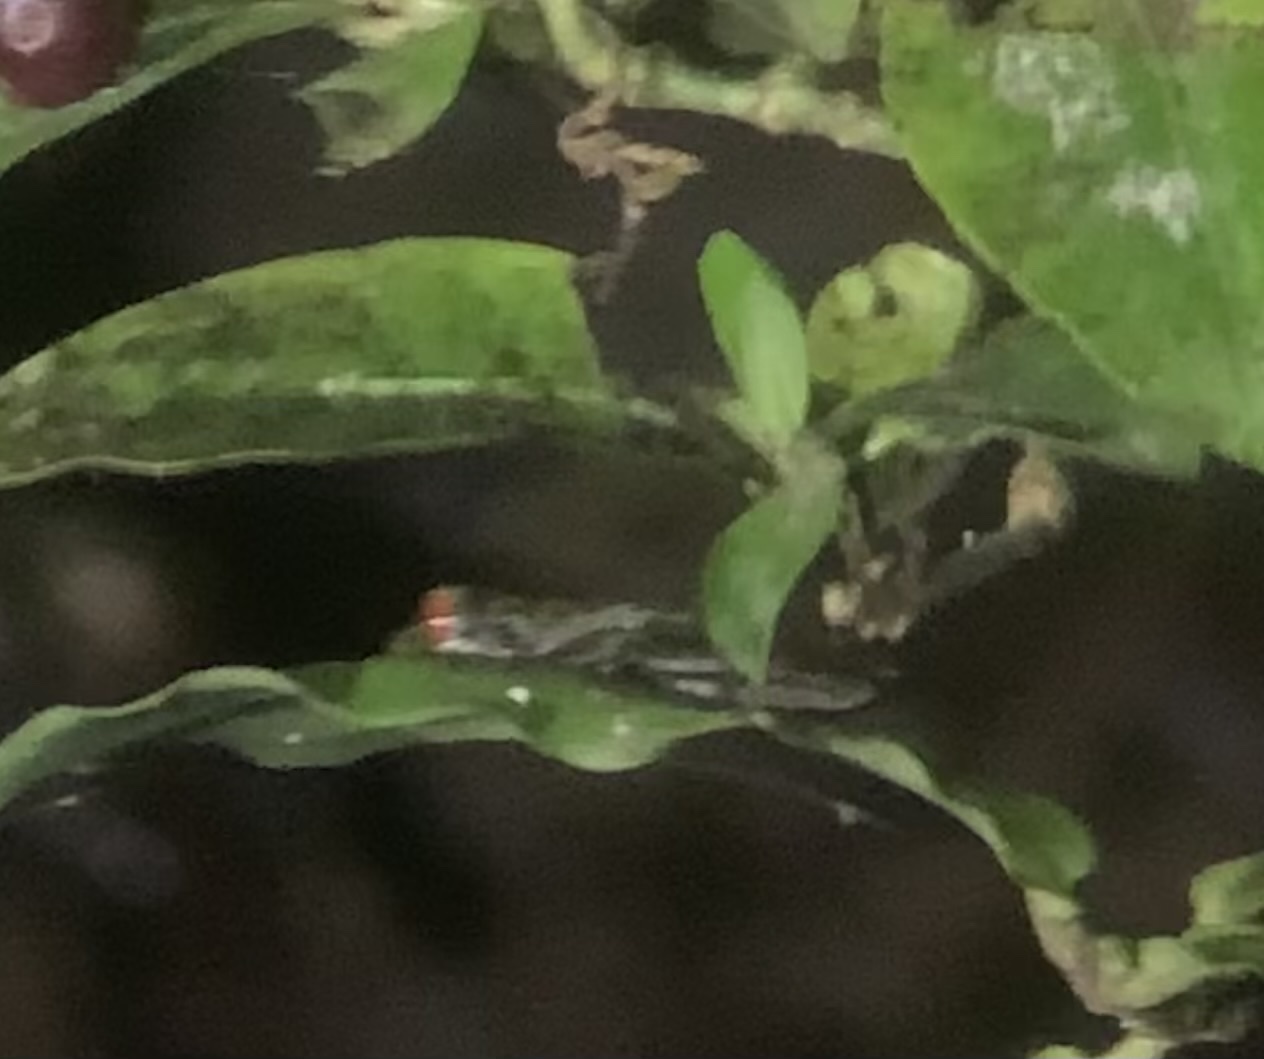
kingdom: Animalia
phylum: Chordata
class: Amphibia
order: Anura
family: Hylidae
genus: Duellmanohyla
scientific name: Duellmanohyla rufioculis
